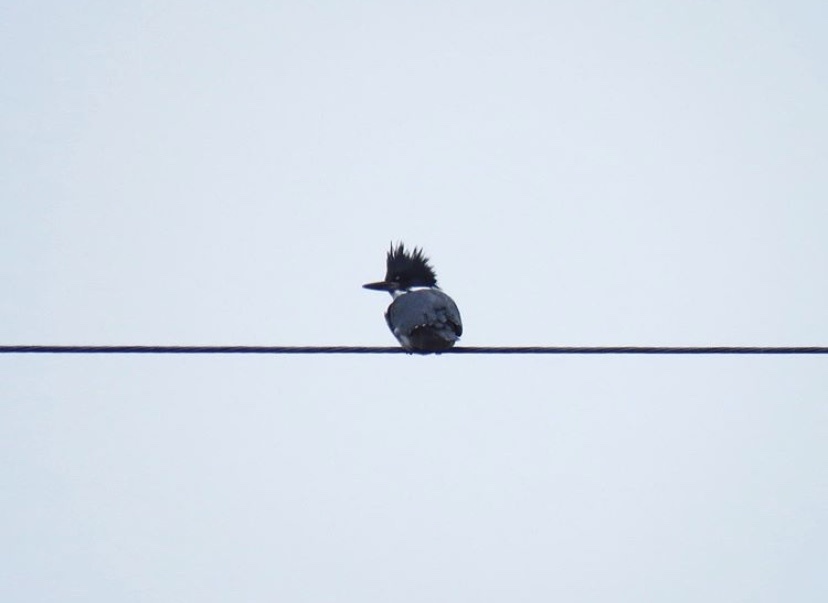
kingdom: Animalia
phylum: Chordata
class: Aves
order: Coraciiformes
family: Alcedinidae
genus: Megaceryle
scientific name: Megaceryle alcyon
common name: Belted kingfisher
